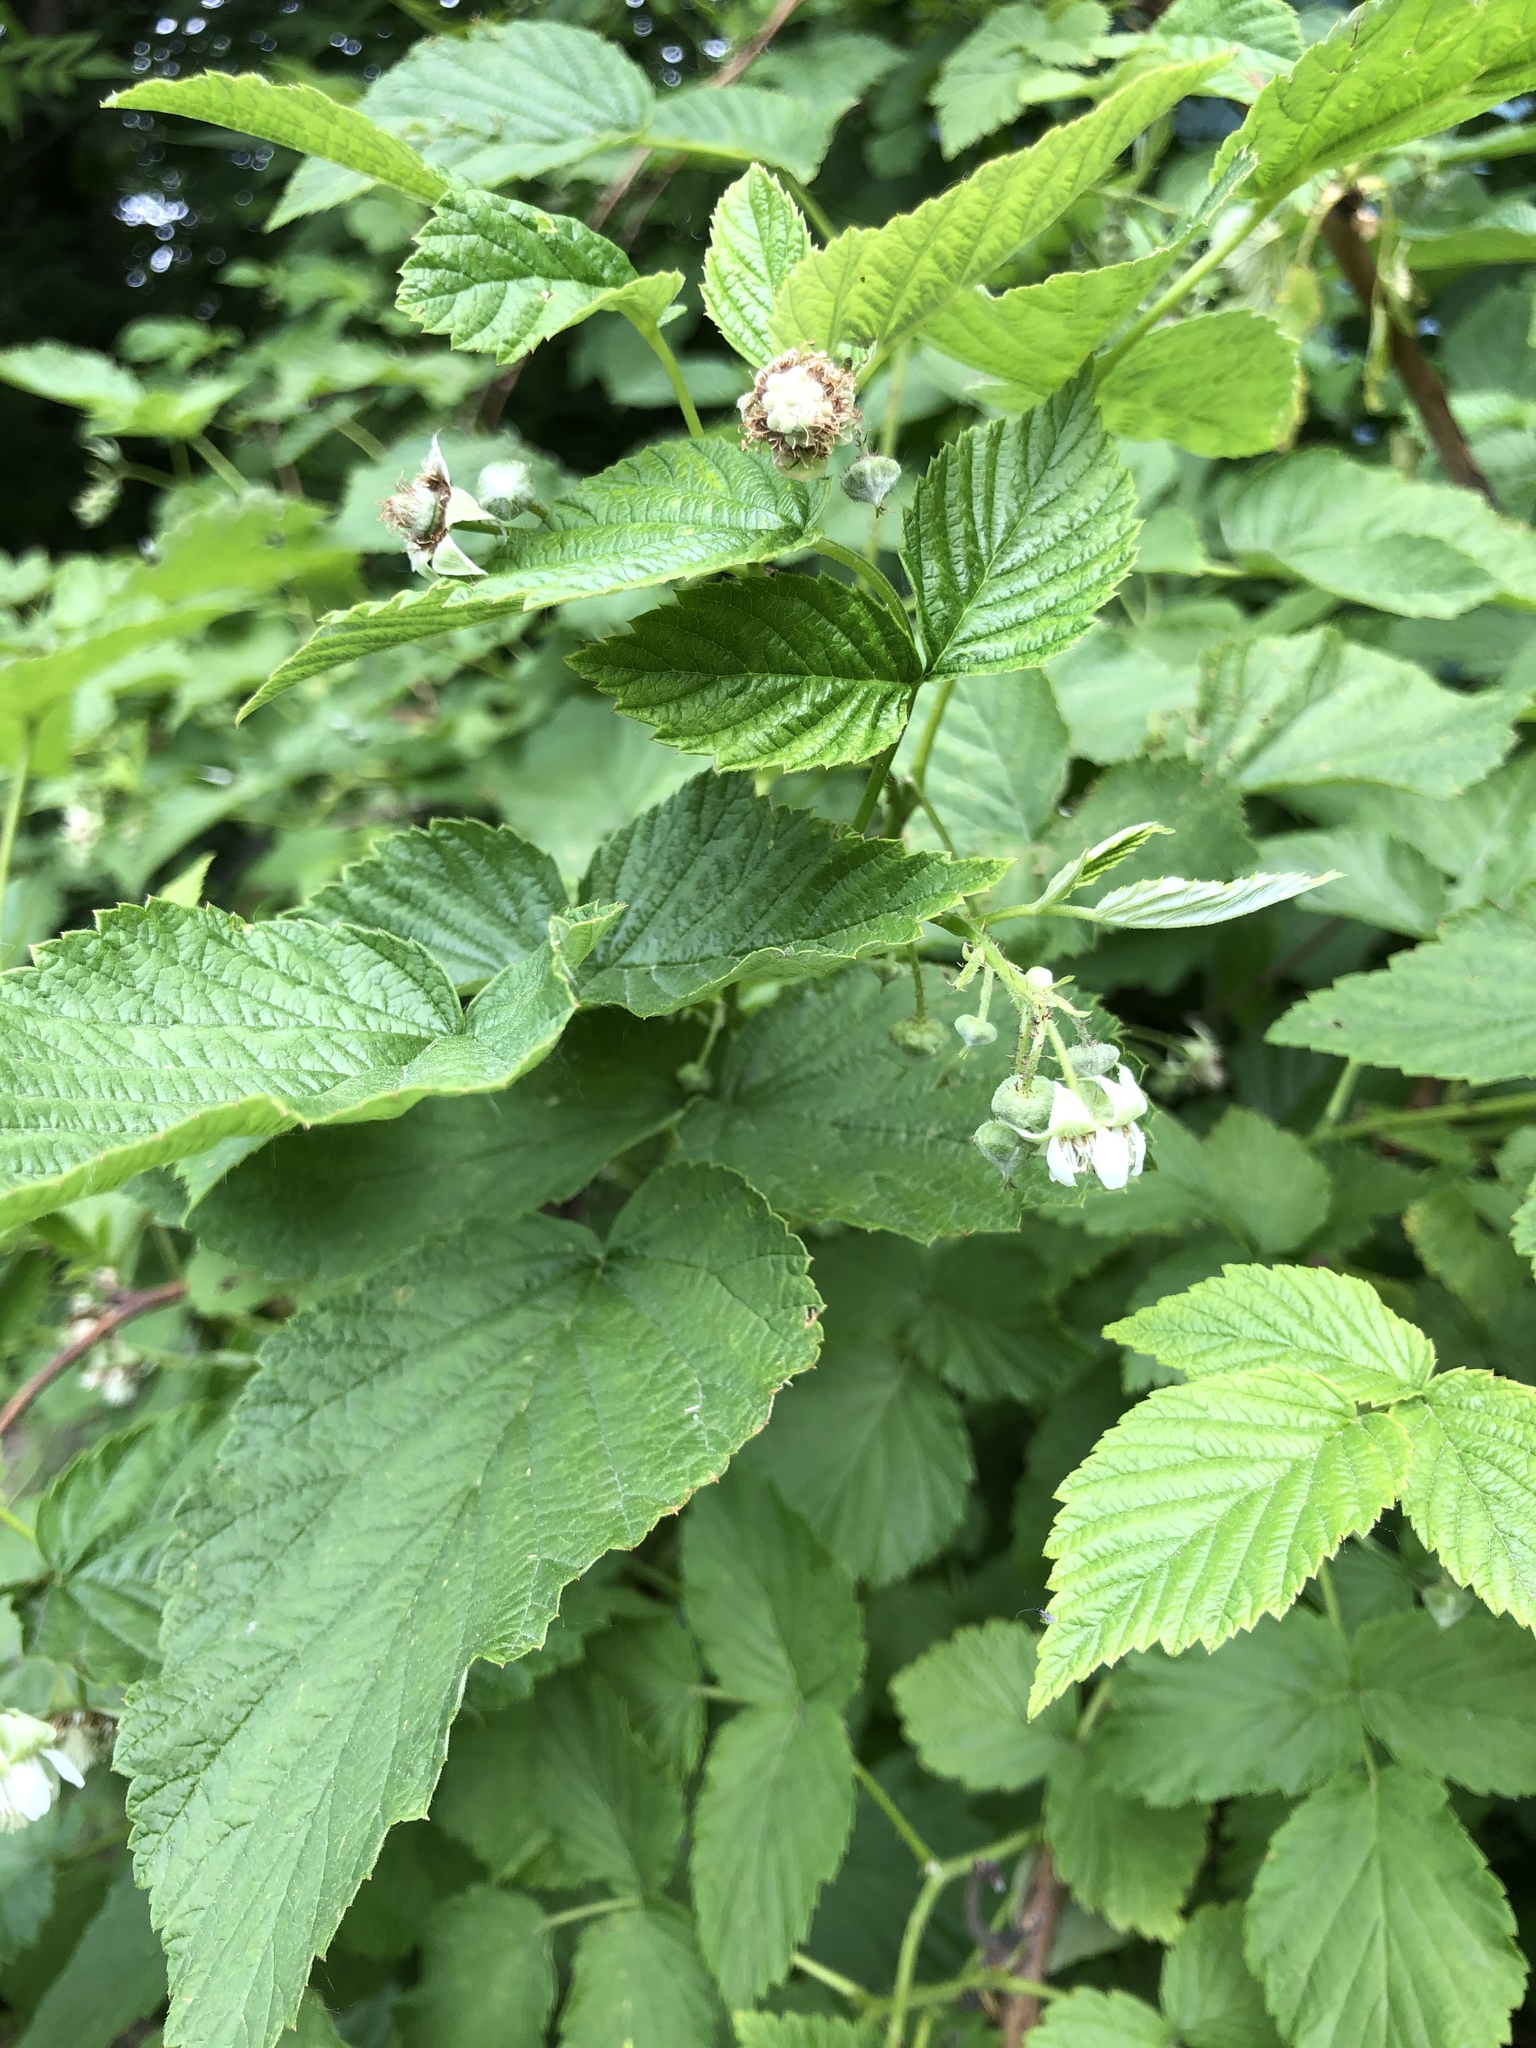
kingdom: Plantae
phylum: Tracheophyta
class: Magnoliopsida
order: Rosales
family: Rosaceae
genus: Rubus
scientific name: Rubus idaeus
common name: Raspberry
